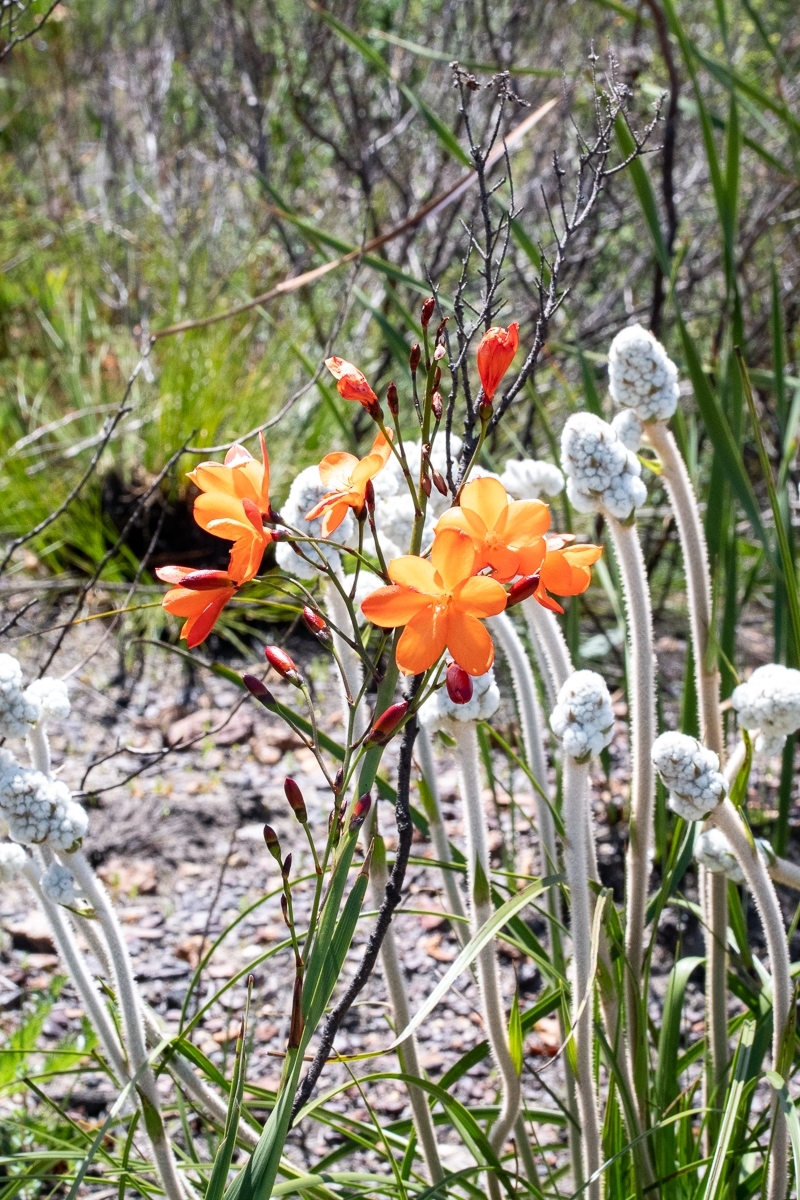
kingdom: Plantae
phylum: Tracheophyta
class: Liliopsida
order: Asparagales
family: Iridaceae
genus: Pillansia
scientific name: Pillansia templemannii
